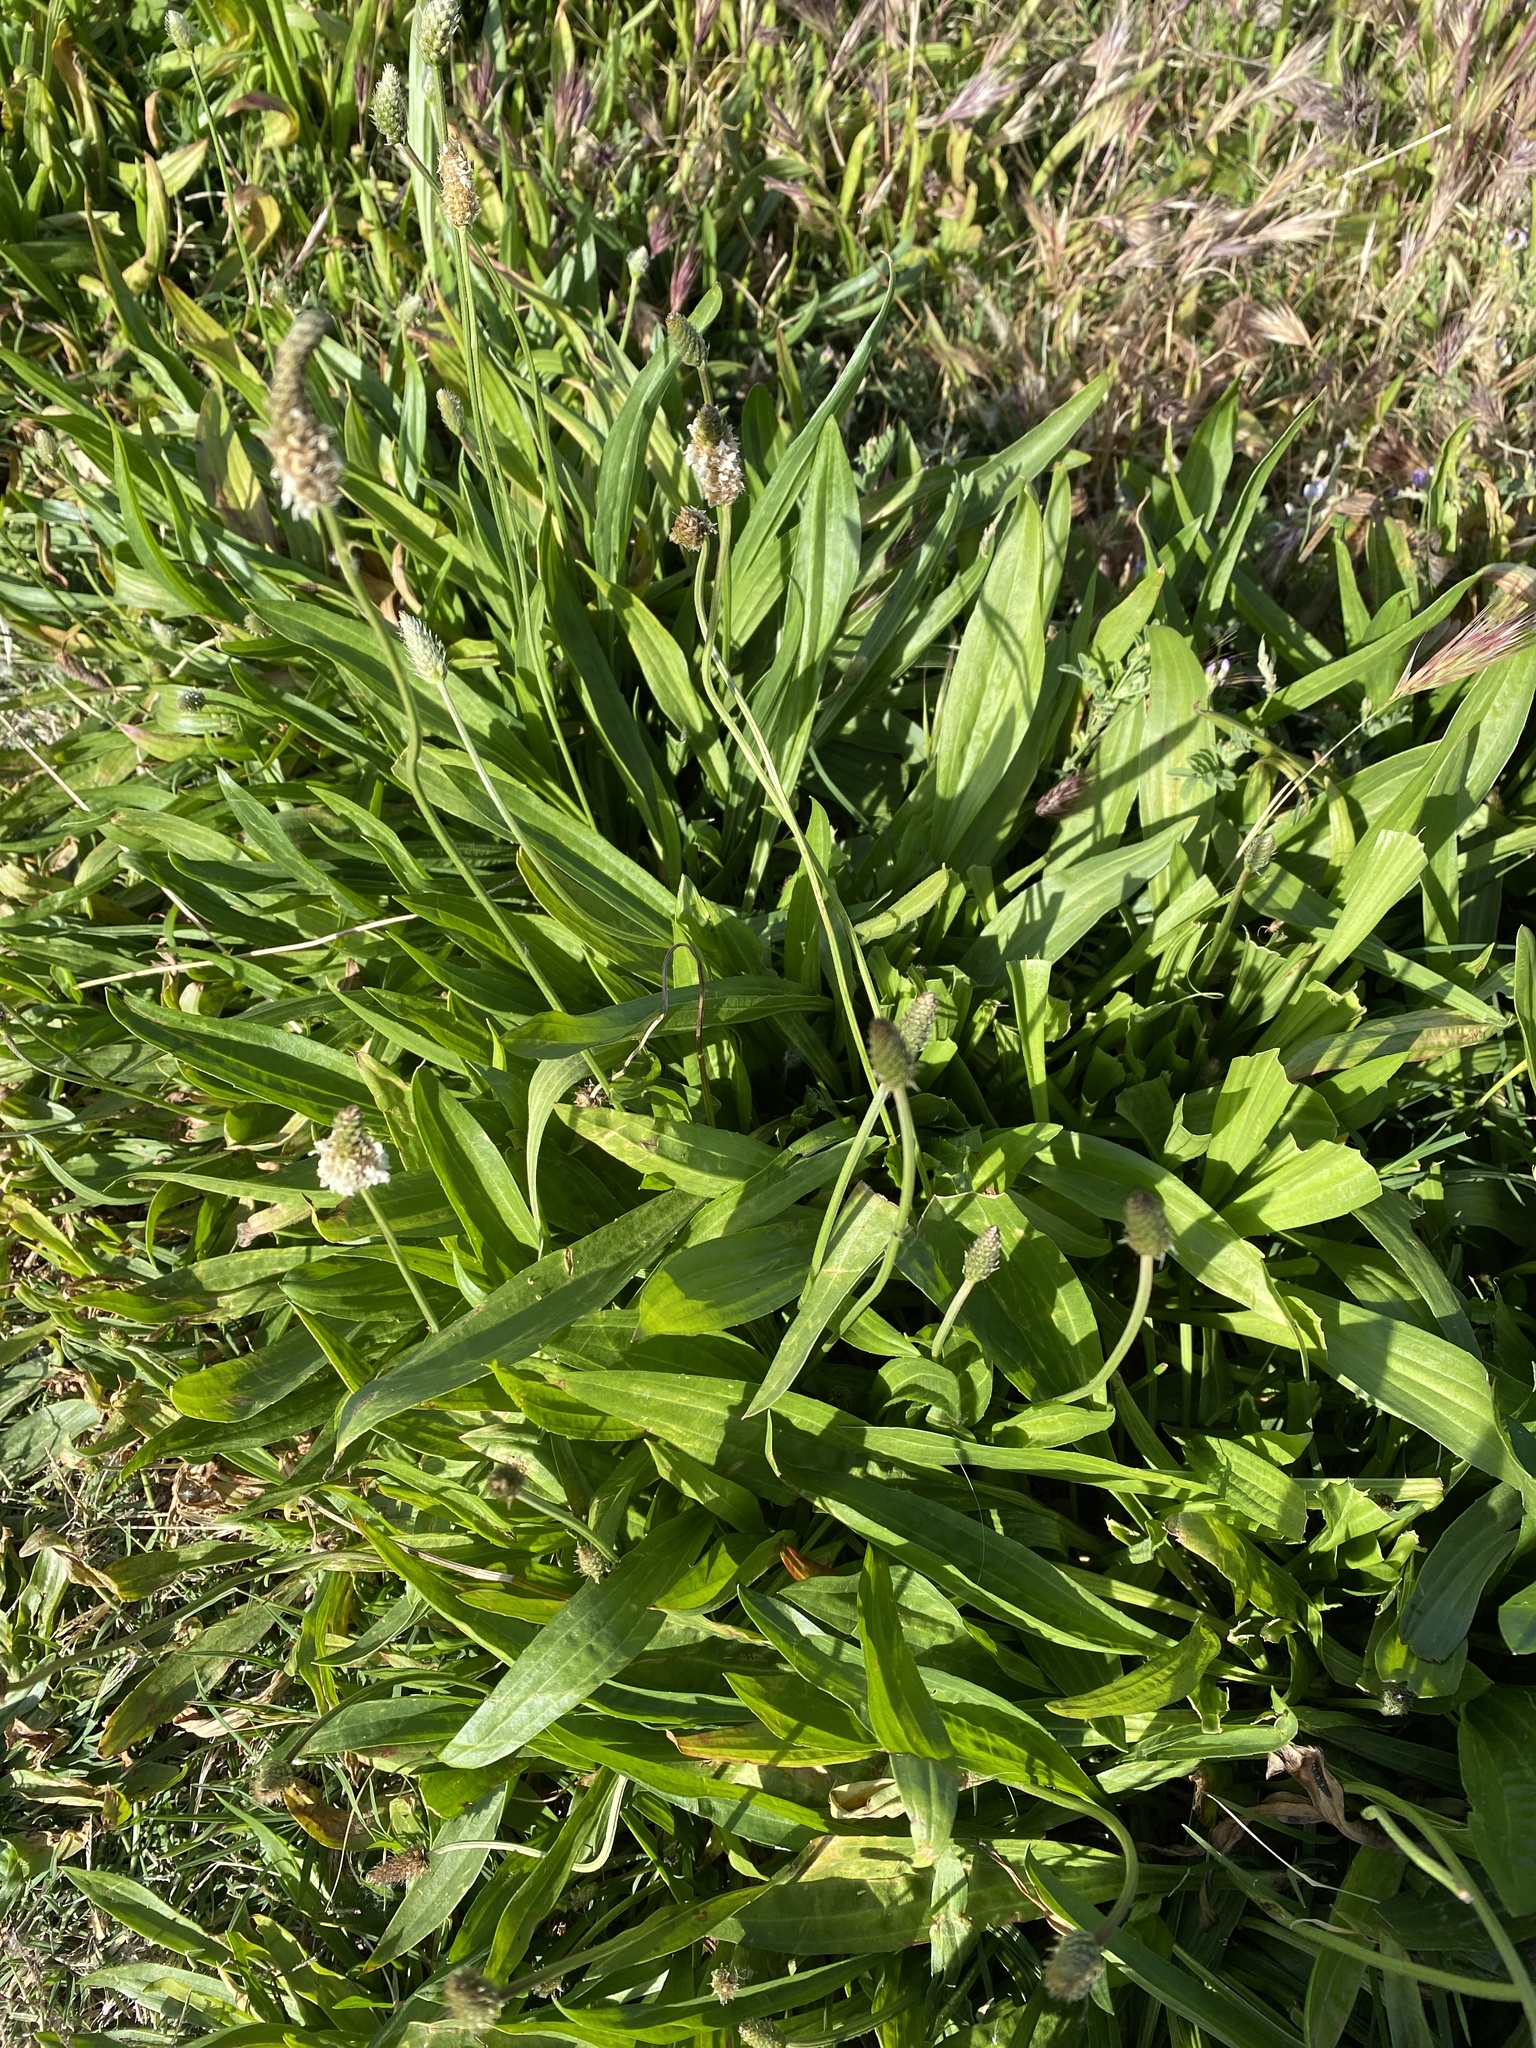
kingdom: Plantae
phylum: Tracheophyta
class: Magnoliopsida
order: Lamiales
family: Plantaginaceae
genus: Plantago
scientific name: Plantago lanceolata
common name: Ribwort plantain
